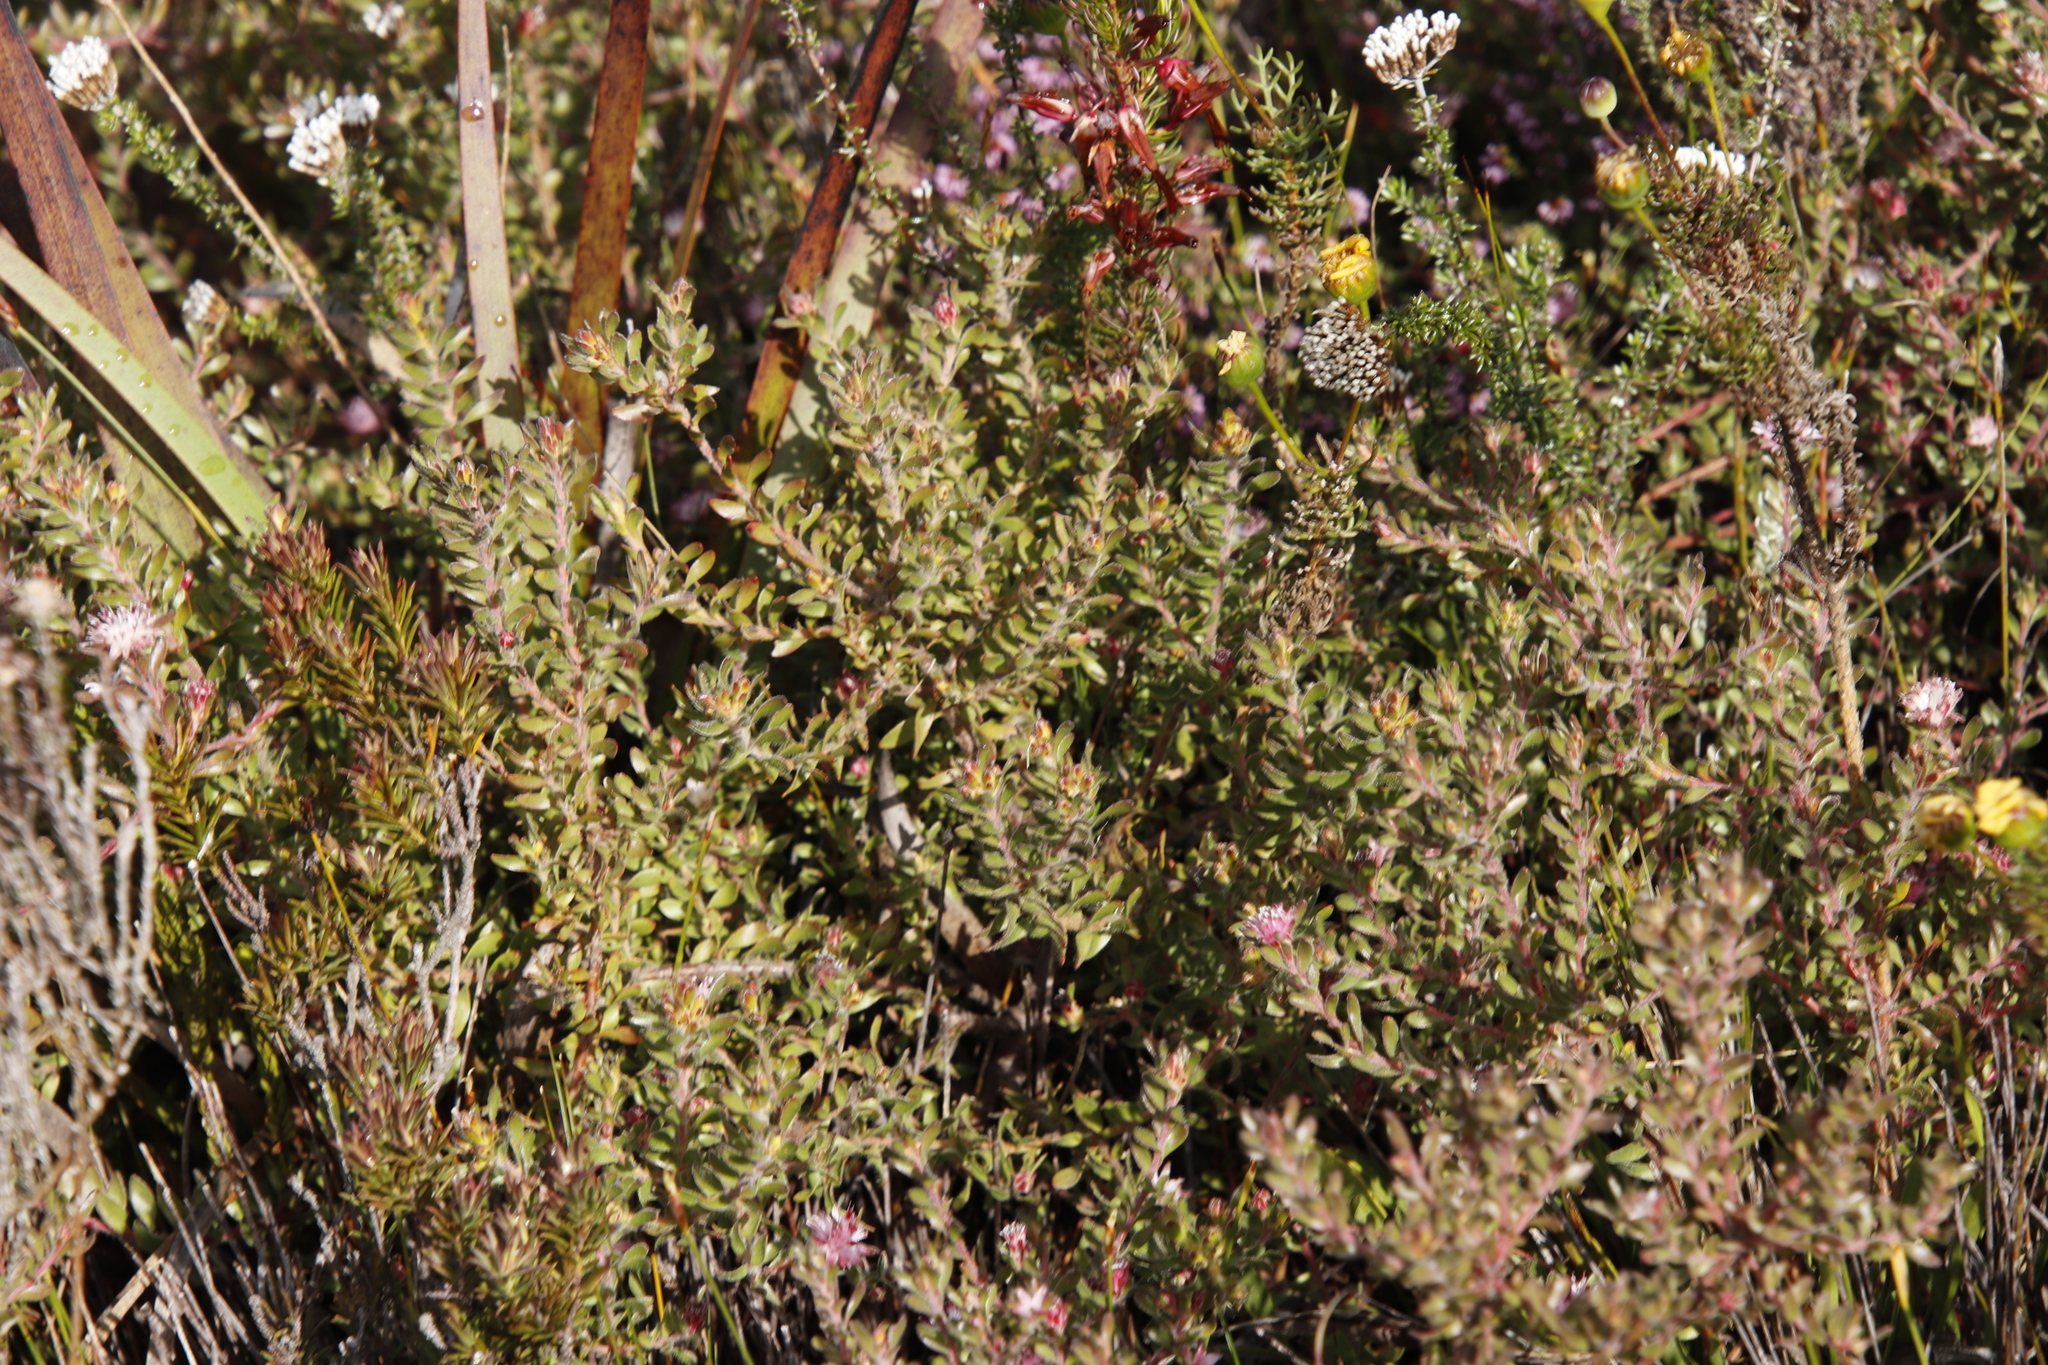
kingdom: Plantae
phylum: Tracheophyta
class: Magnoliopsida
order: Proteales
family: Proteaceae
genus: Diastella
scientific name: Diastella divaricata
